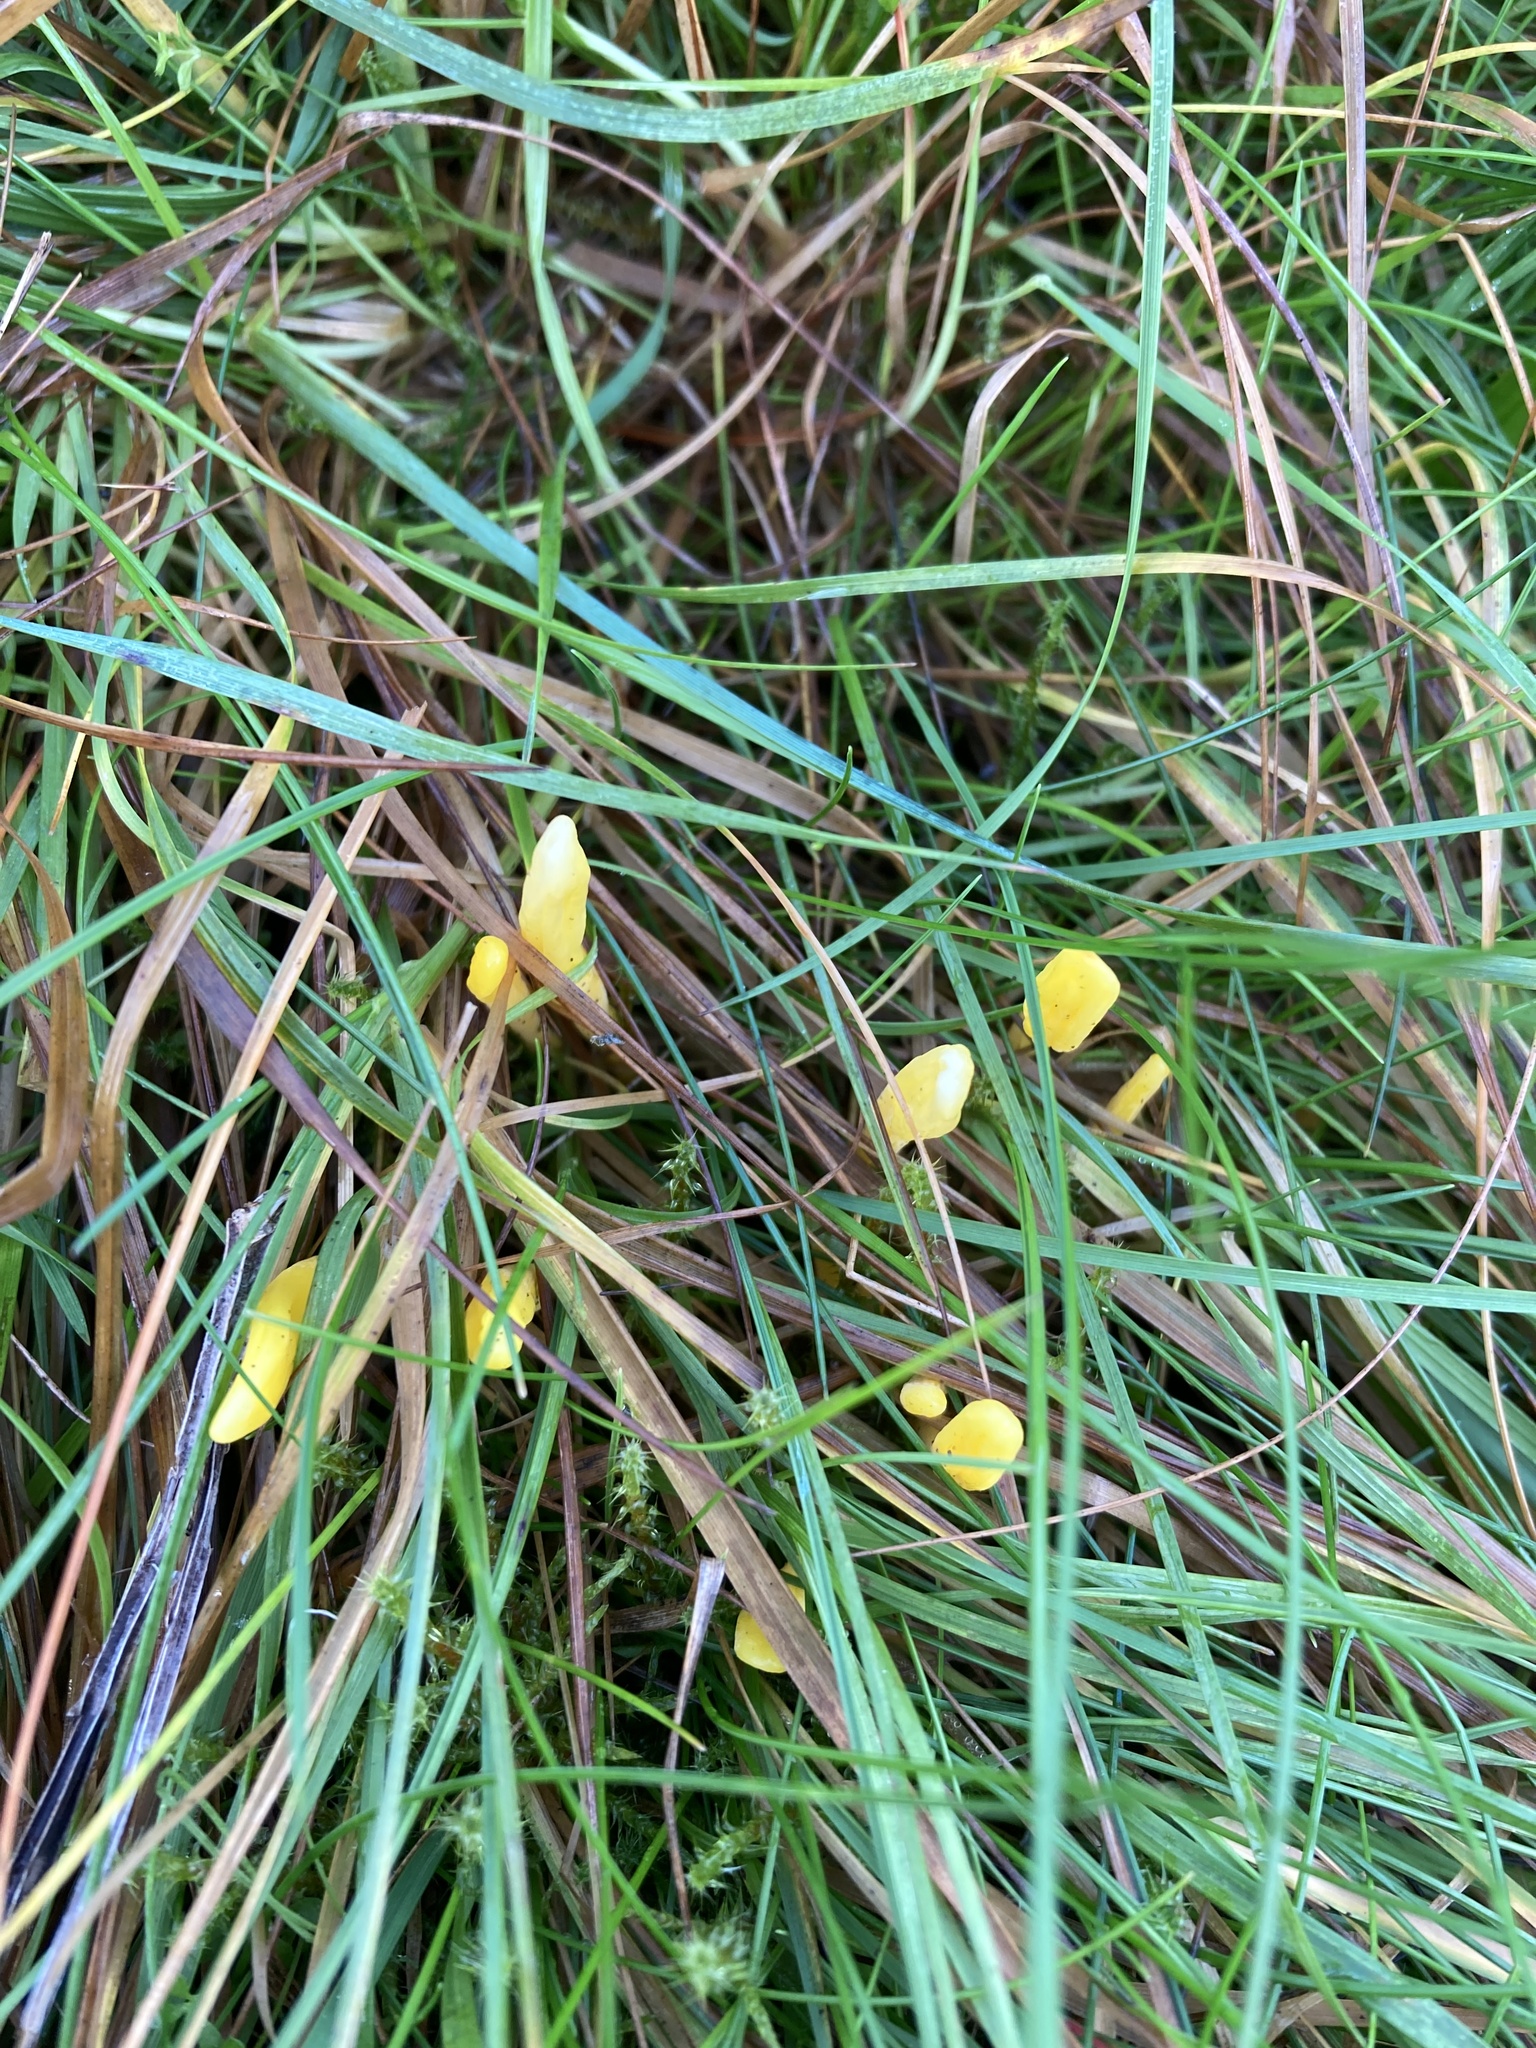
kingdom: Fungi
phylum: Basidiomycota
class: Agaricomycetes
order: Agaricales
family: Clavariaceae
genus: Clavulinopsis
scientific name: Clavulinopsis helvola
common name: Yellow club
